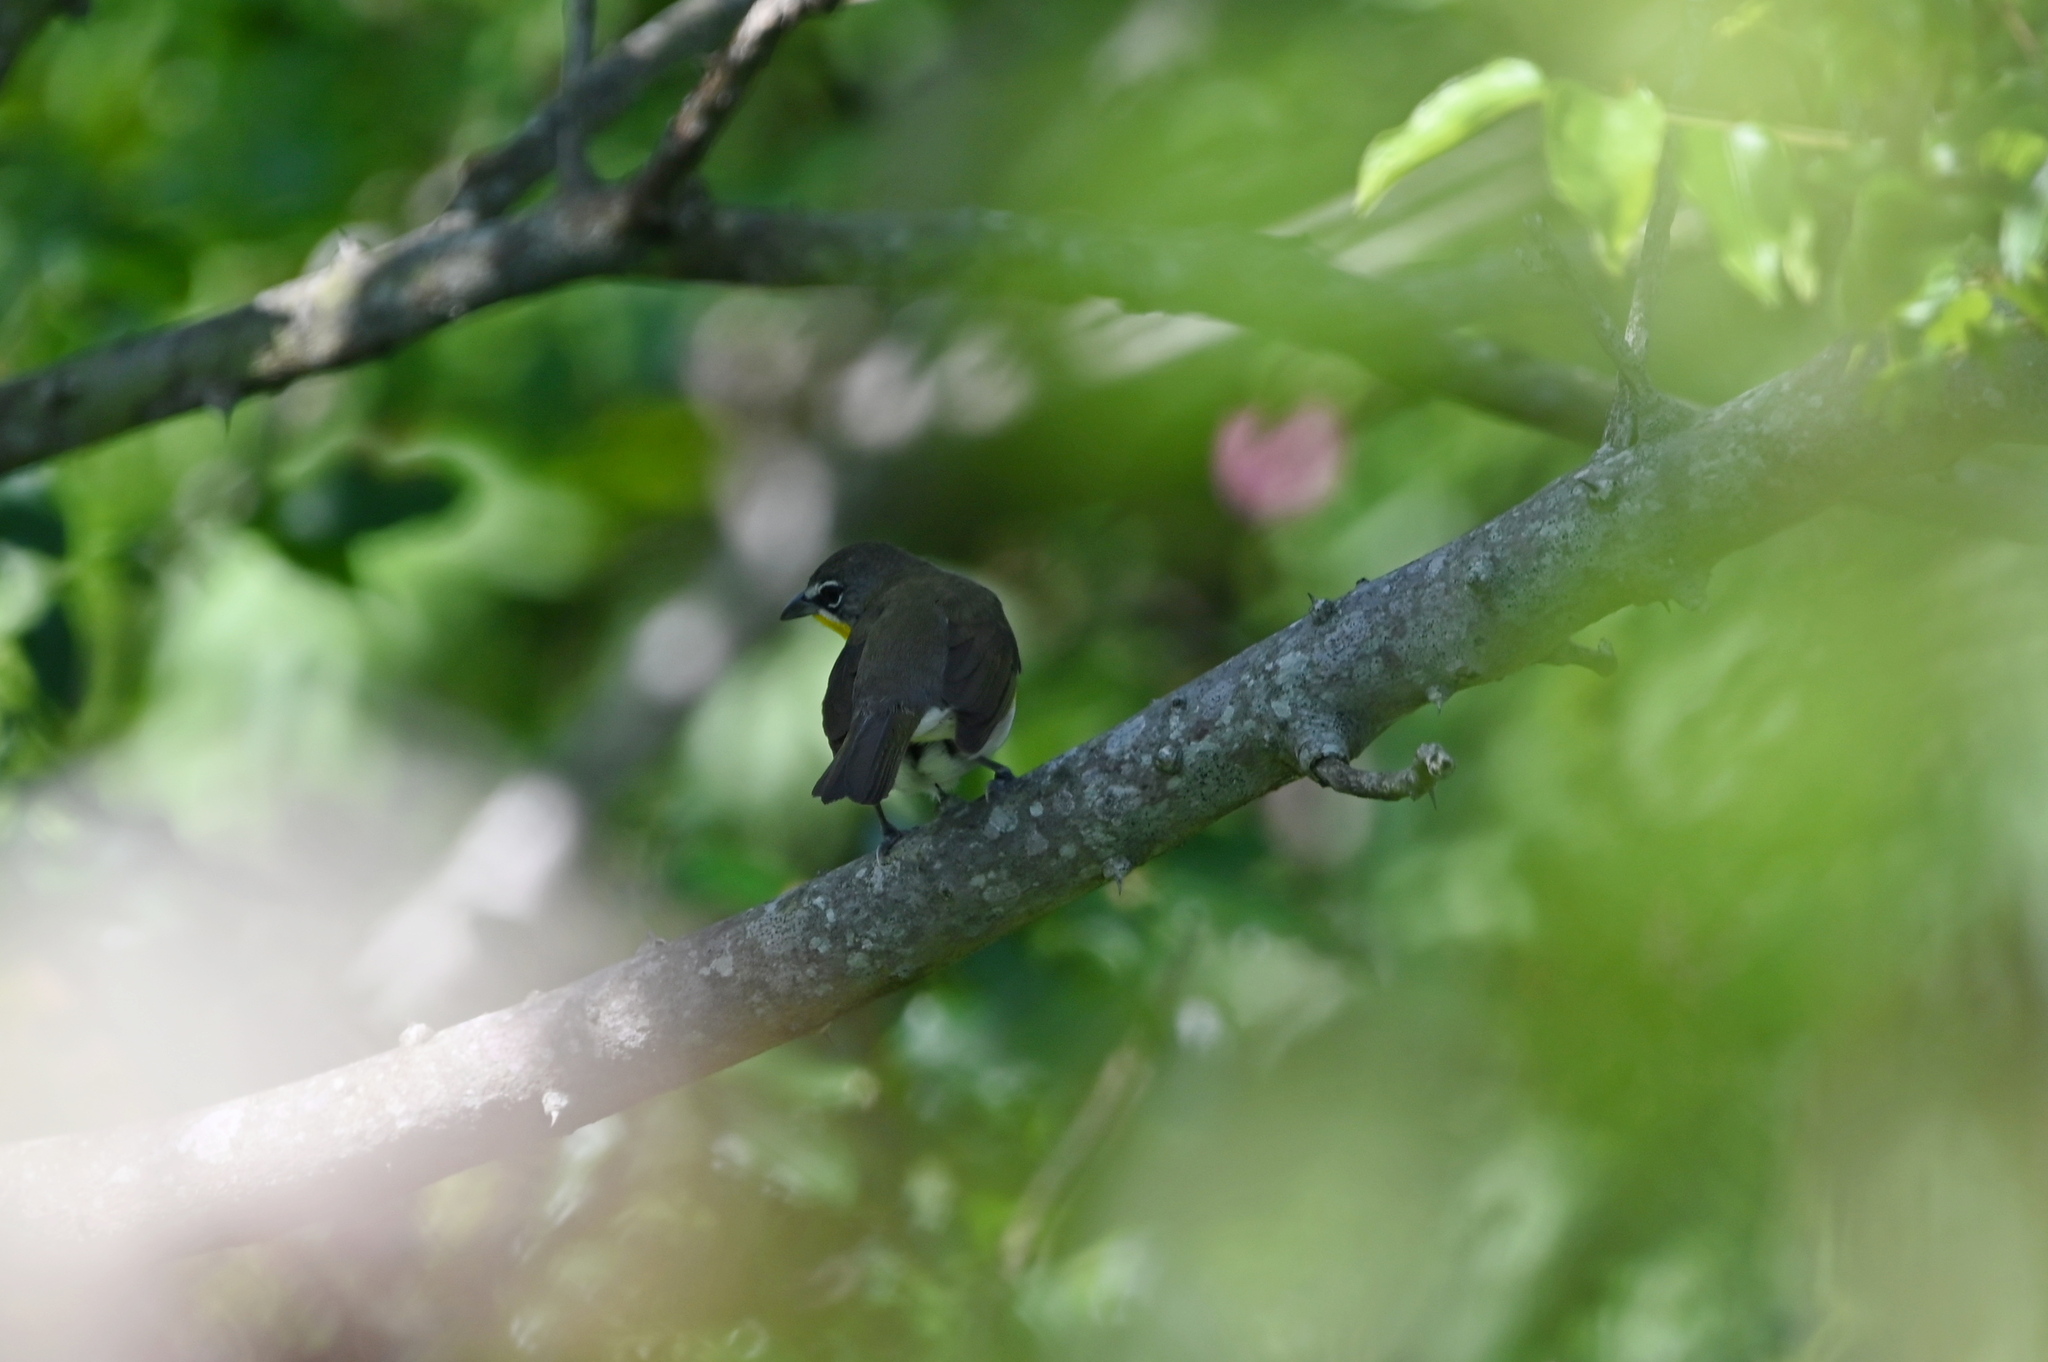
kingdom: Animalia
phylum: Chordata
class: Aves
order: Passeriformes
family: Parulidae
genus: Icteria
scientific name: Icteria virens
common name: Yellow-breasted chat
